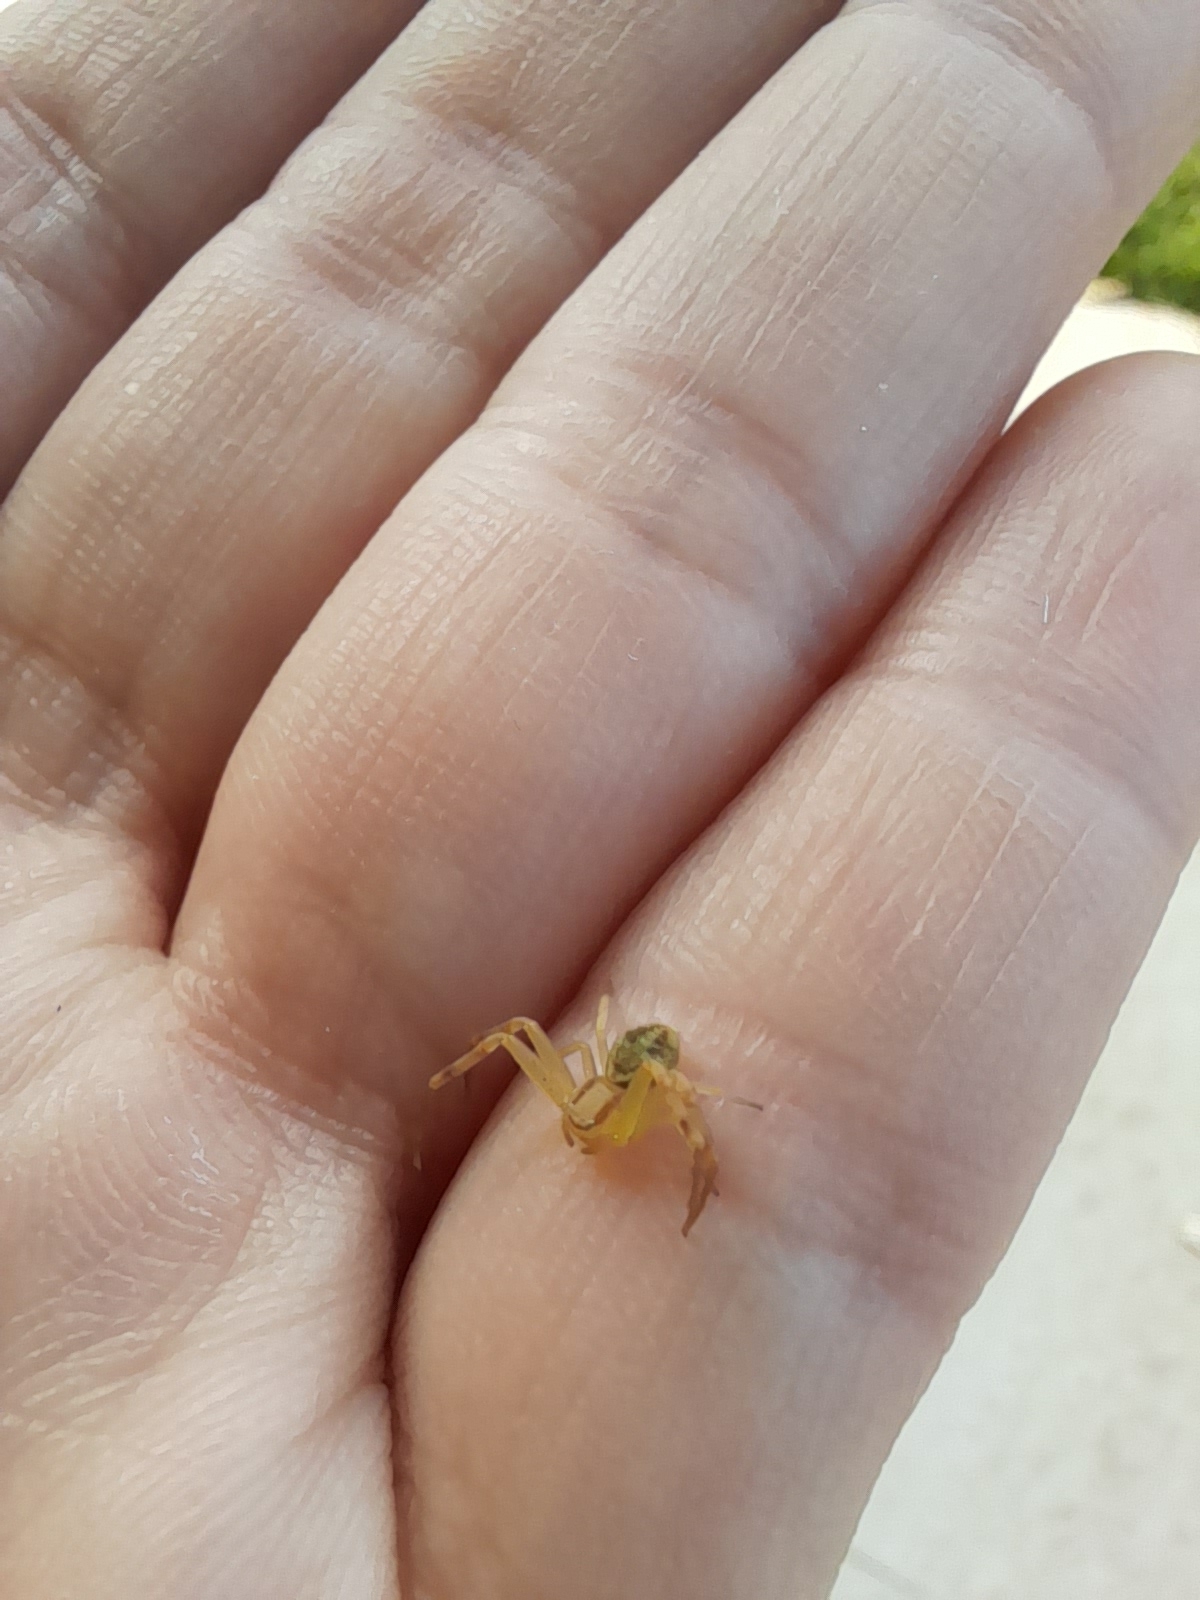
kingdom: Animalia
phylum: Arthropoda
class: Arachnida
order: Araneae
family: Thomisidae
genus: Misumenops
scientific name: Misumenops
